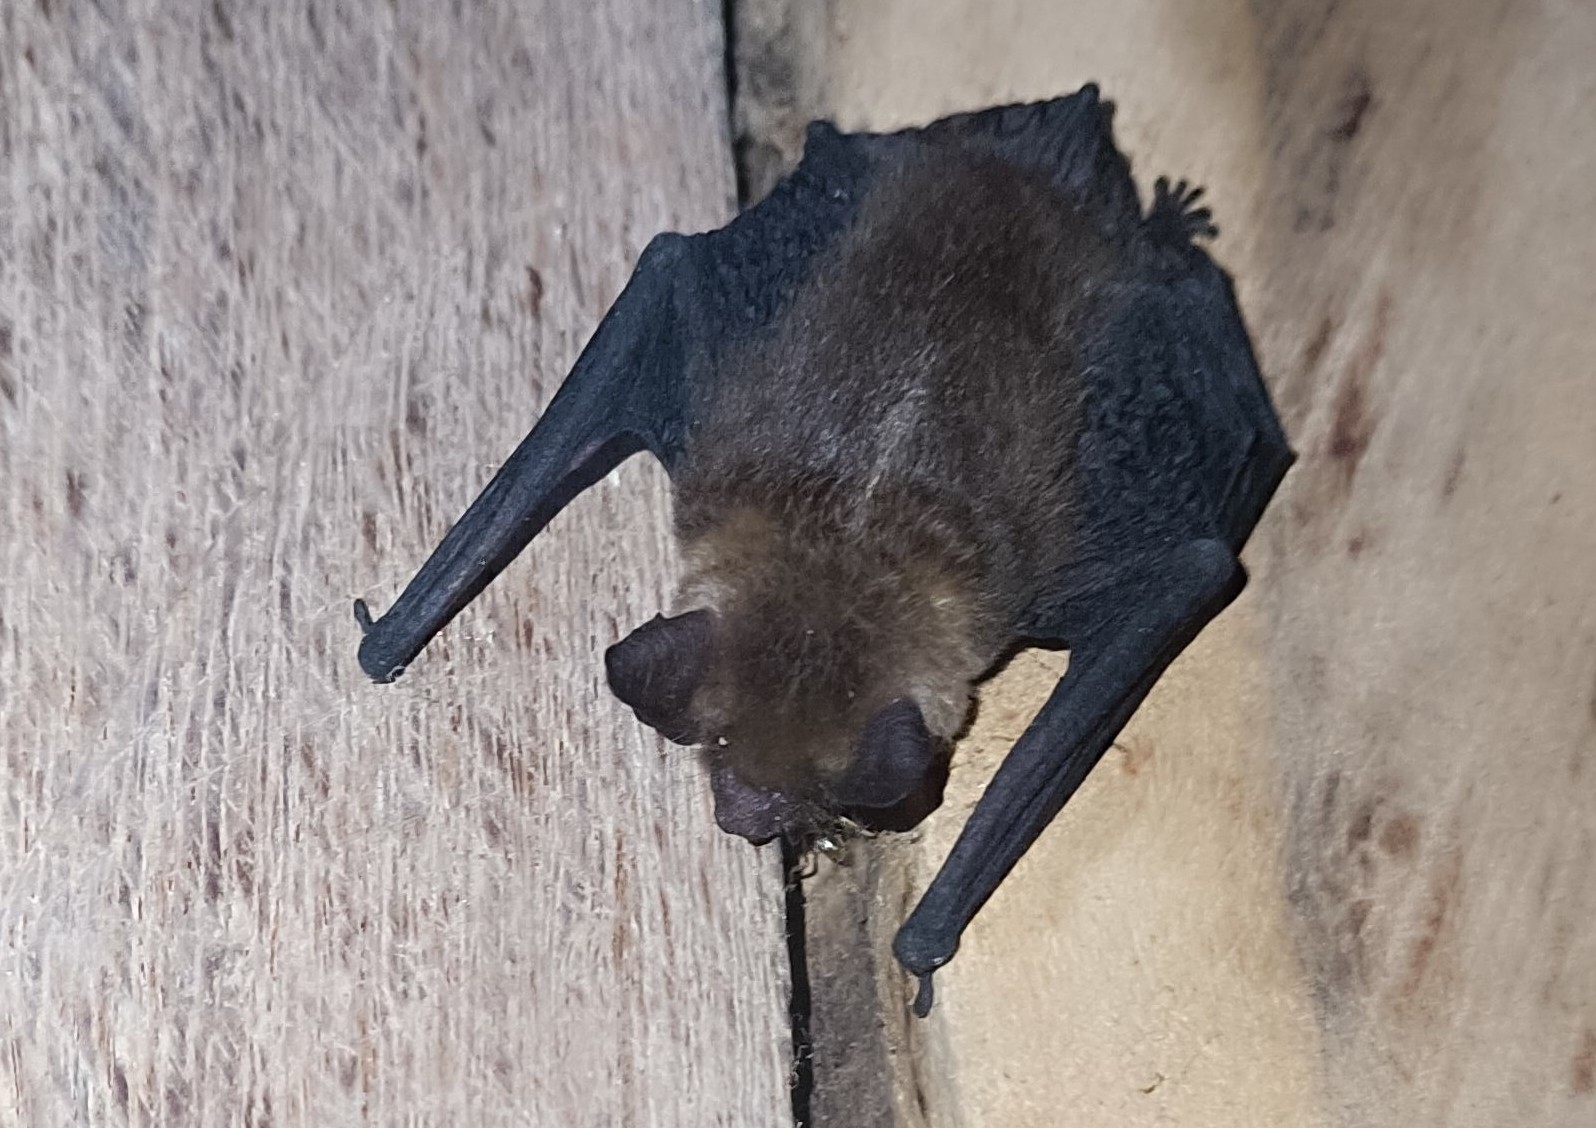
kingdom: Animalia
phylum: Chordata
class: Mammalia
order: Chiroptera
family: Vespertilionidae
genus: Rhogeessa
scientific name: Rhogeessa aenea
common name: Yucatan yellow bat
